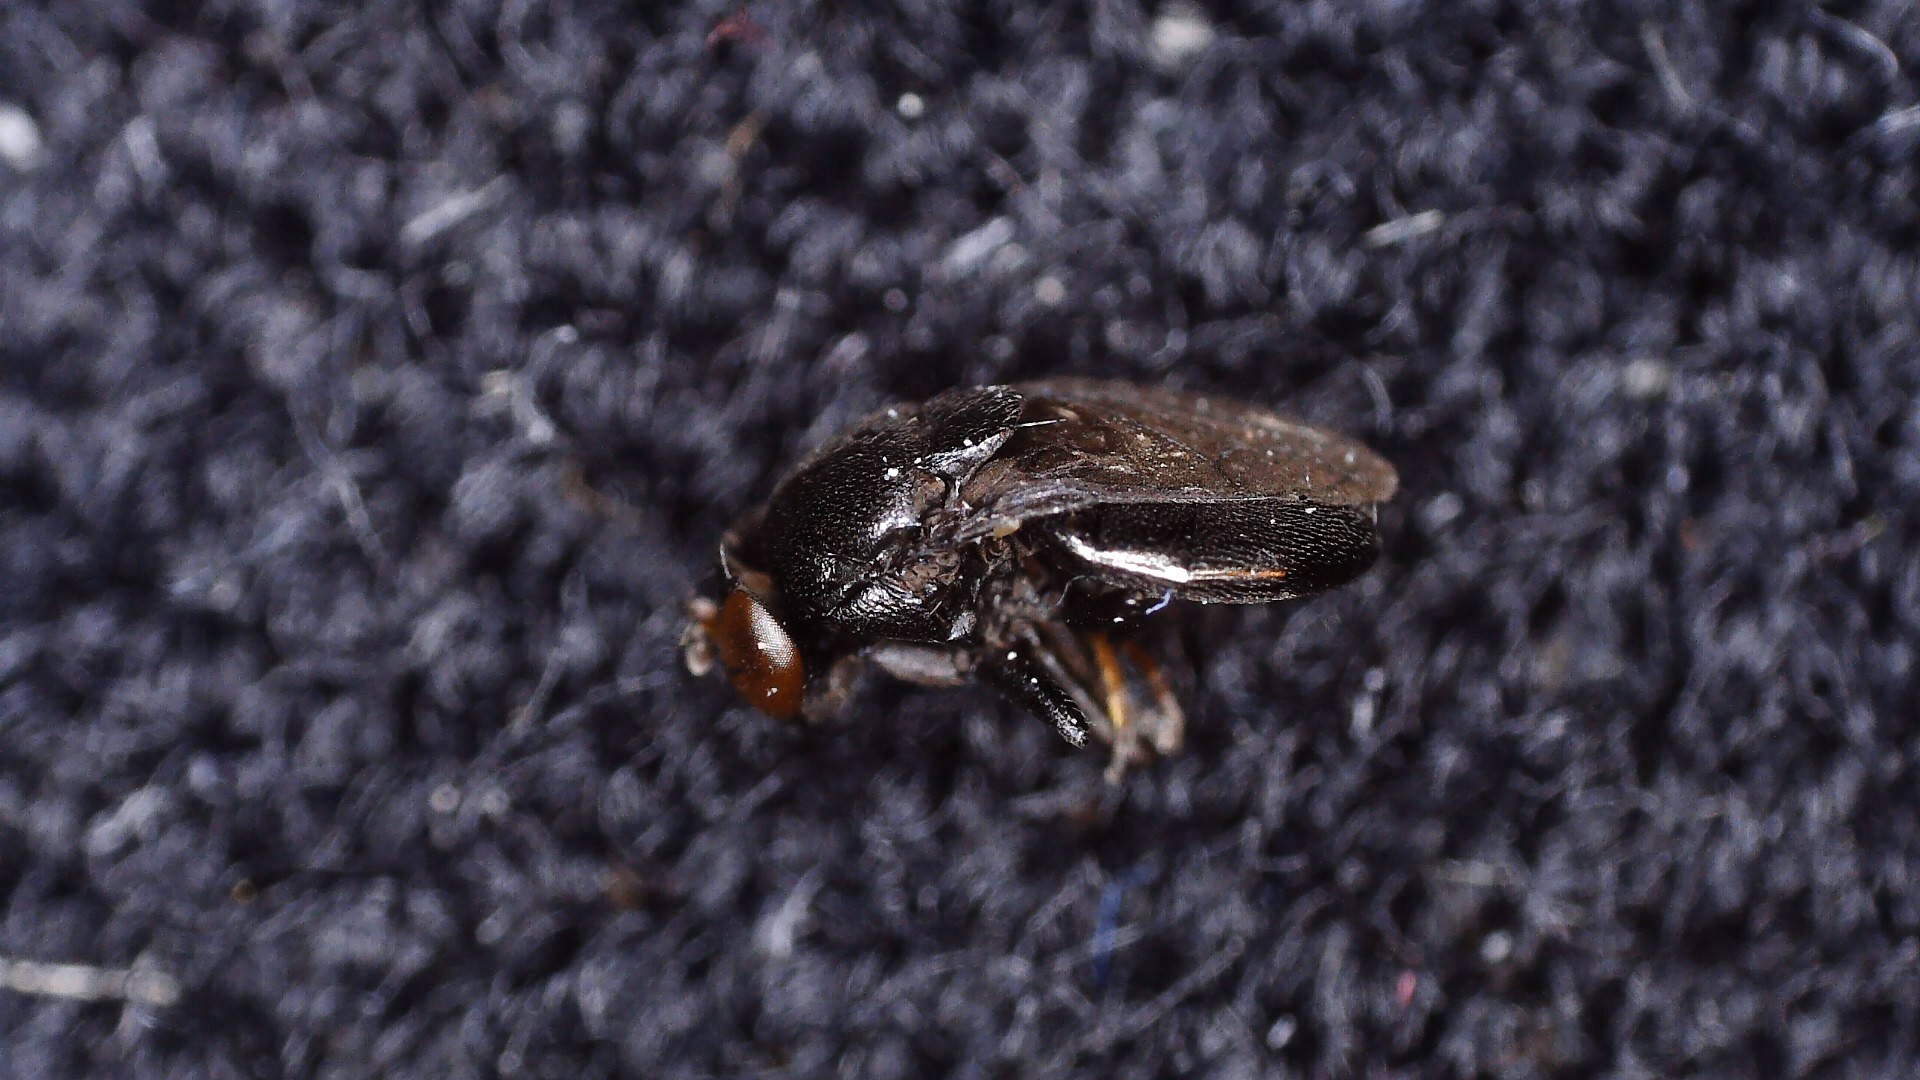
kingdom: Animalia
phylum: Arthropoda
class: Insecta
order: Diptera
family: Ephydridae
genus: Discomyza
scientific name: Discomyza incurva
